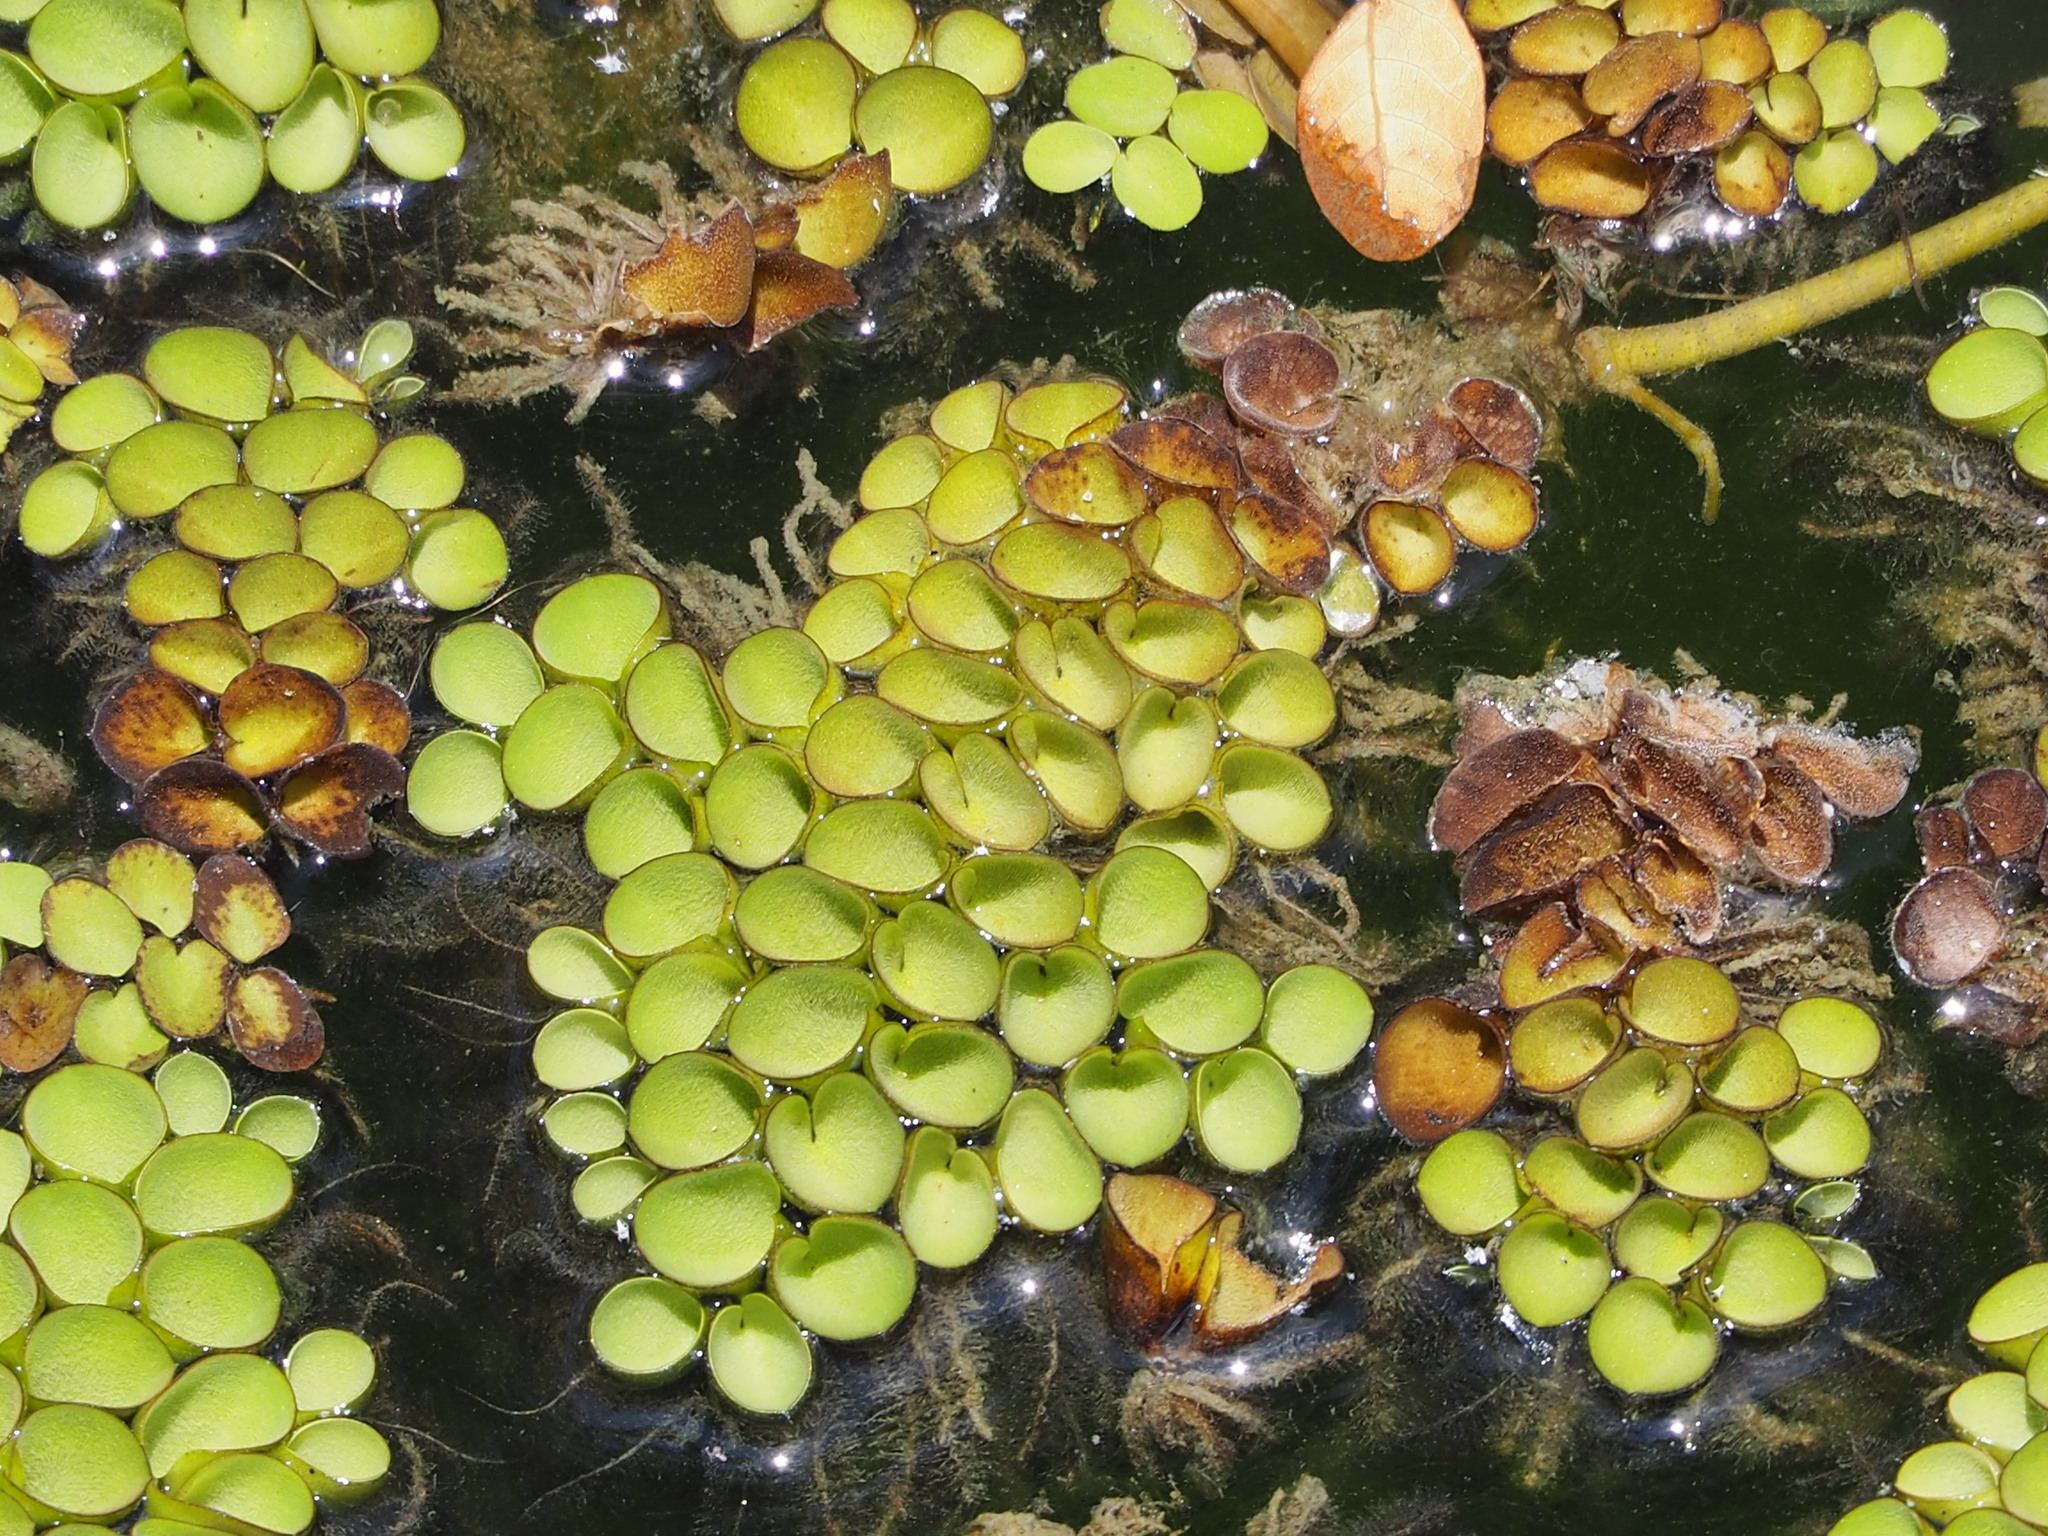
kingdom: Plantae
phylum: Tracheophyta
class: Polypodiopsida
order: Salviniales
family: Salviniaceae
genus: Salvinia
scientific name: Salvinia cucullata
